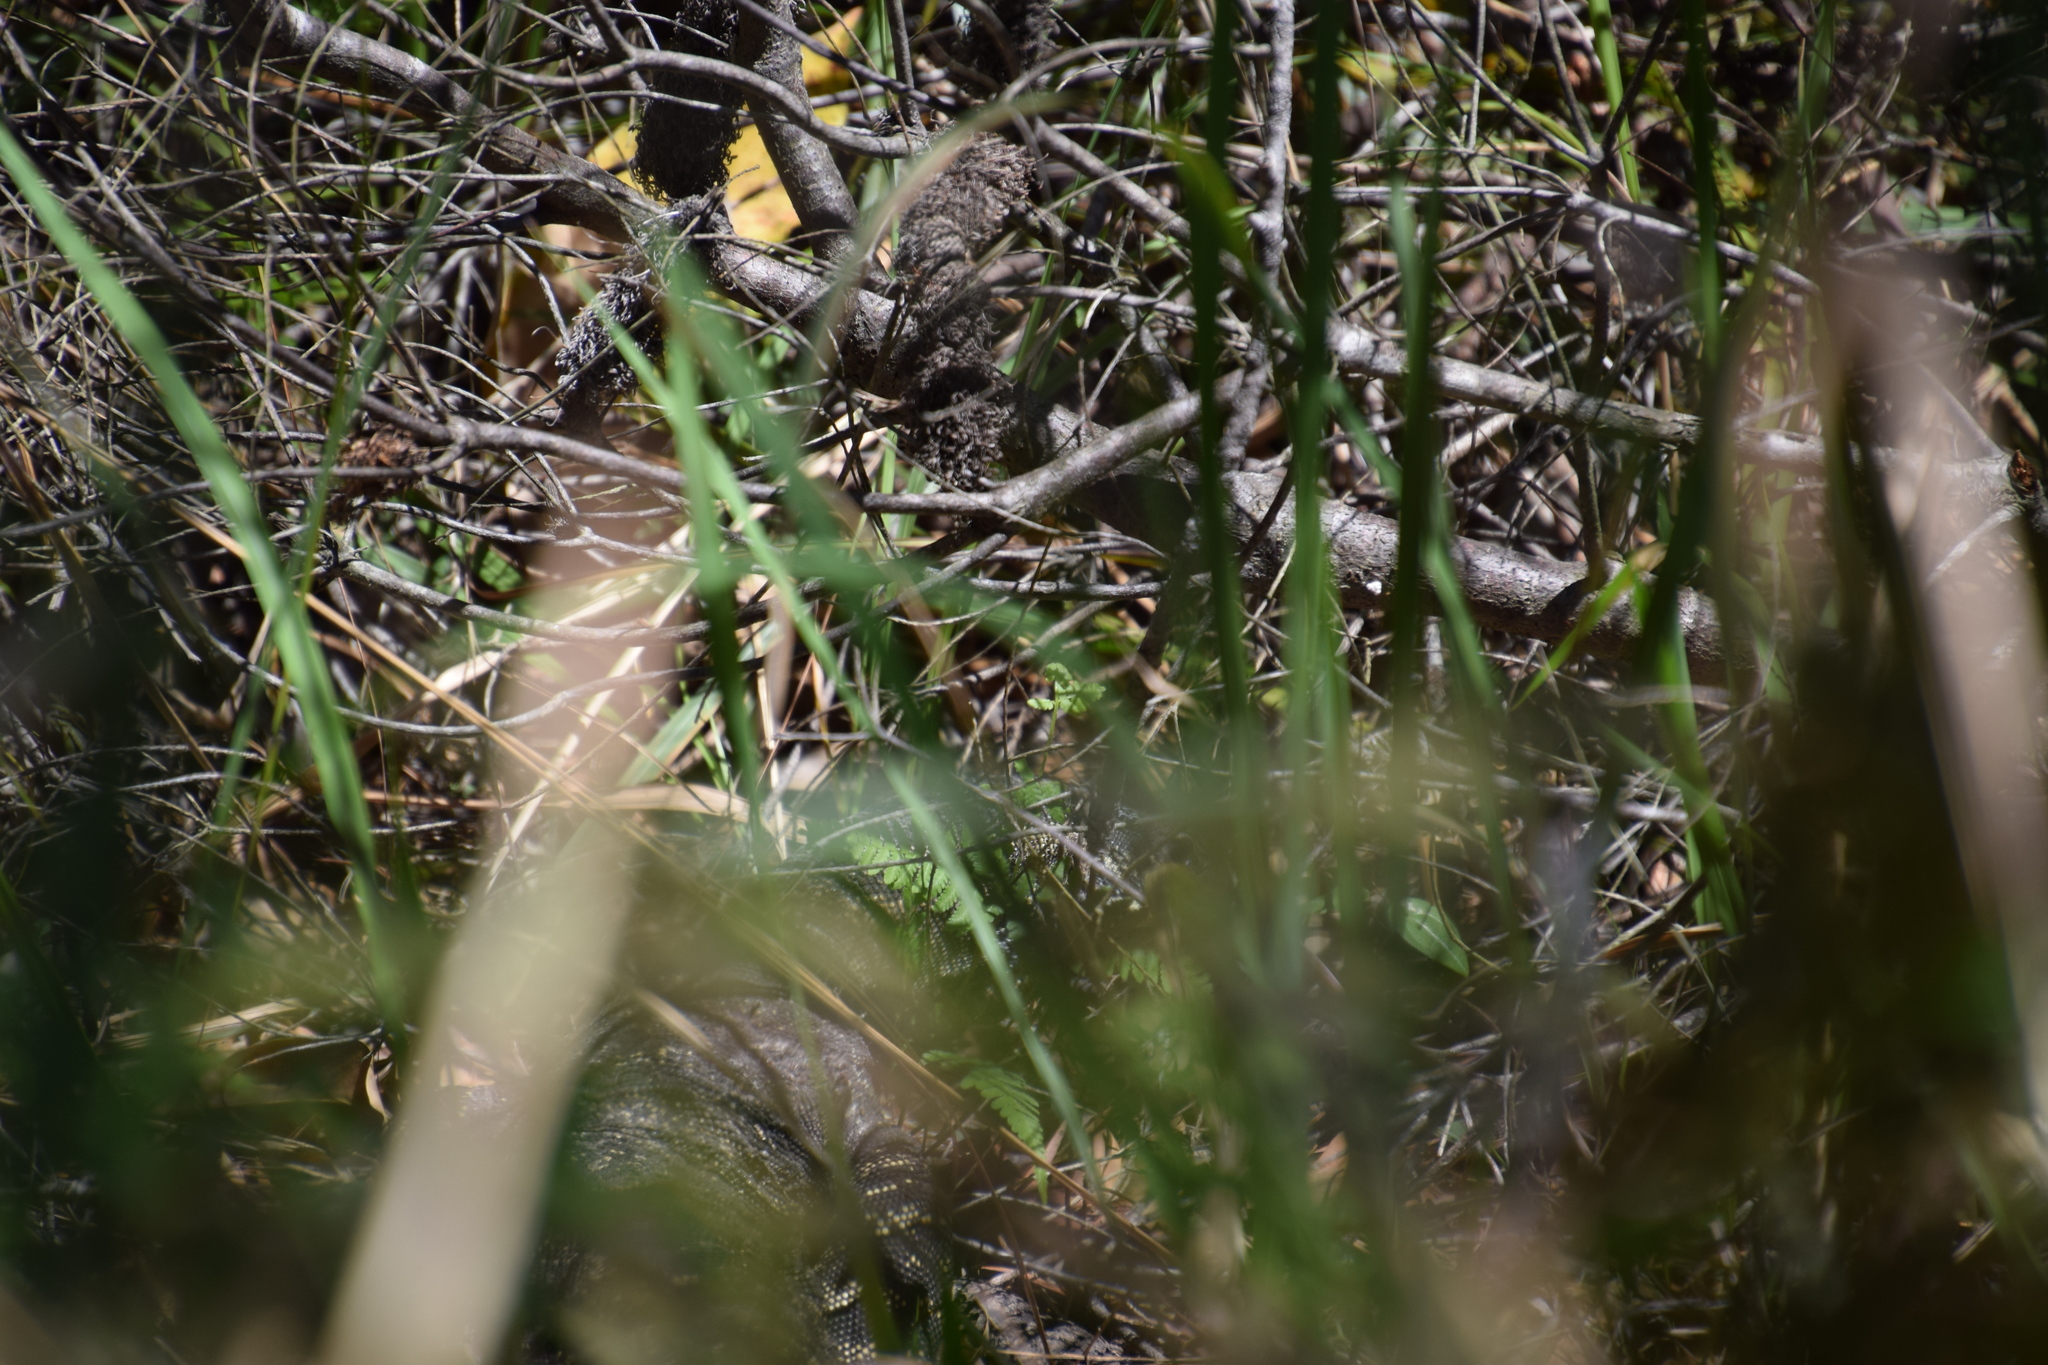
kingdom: Animalia
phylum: Chordata
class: Squamata
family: Varanidae
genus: Varanus
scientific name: Varanus varius
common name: Lace monitor
